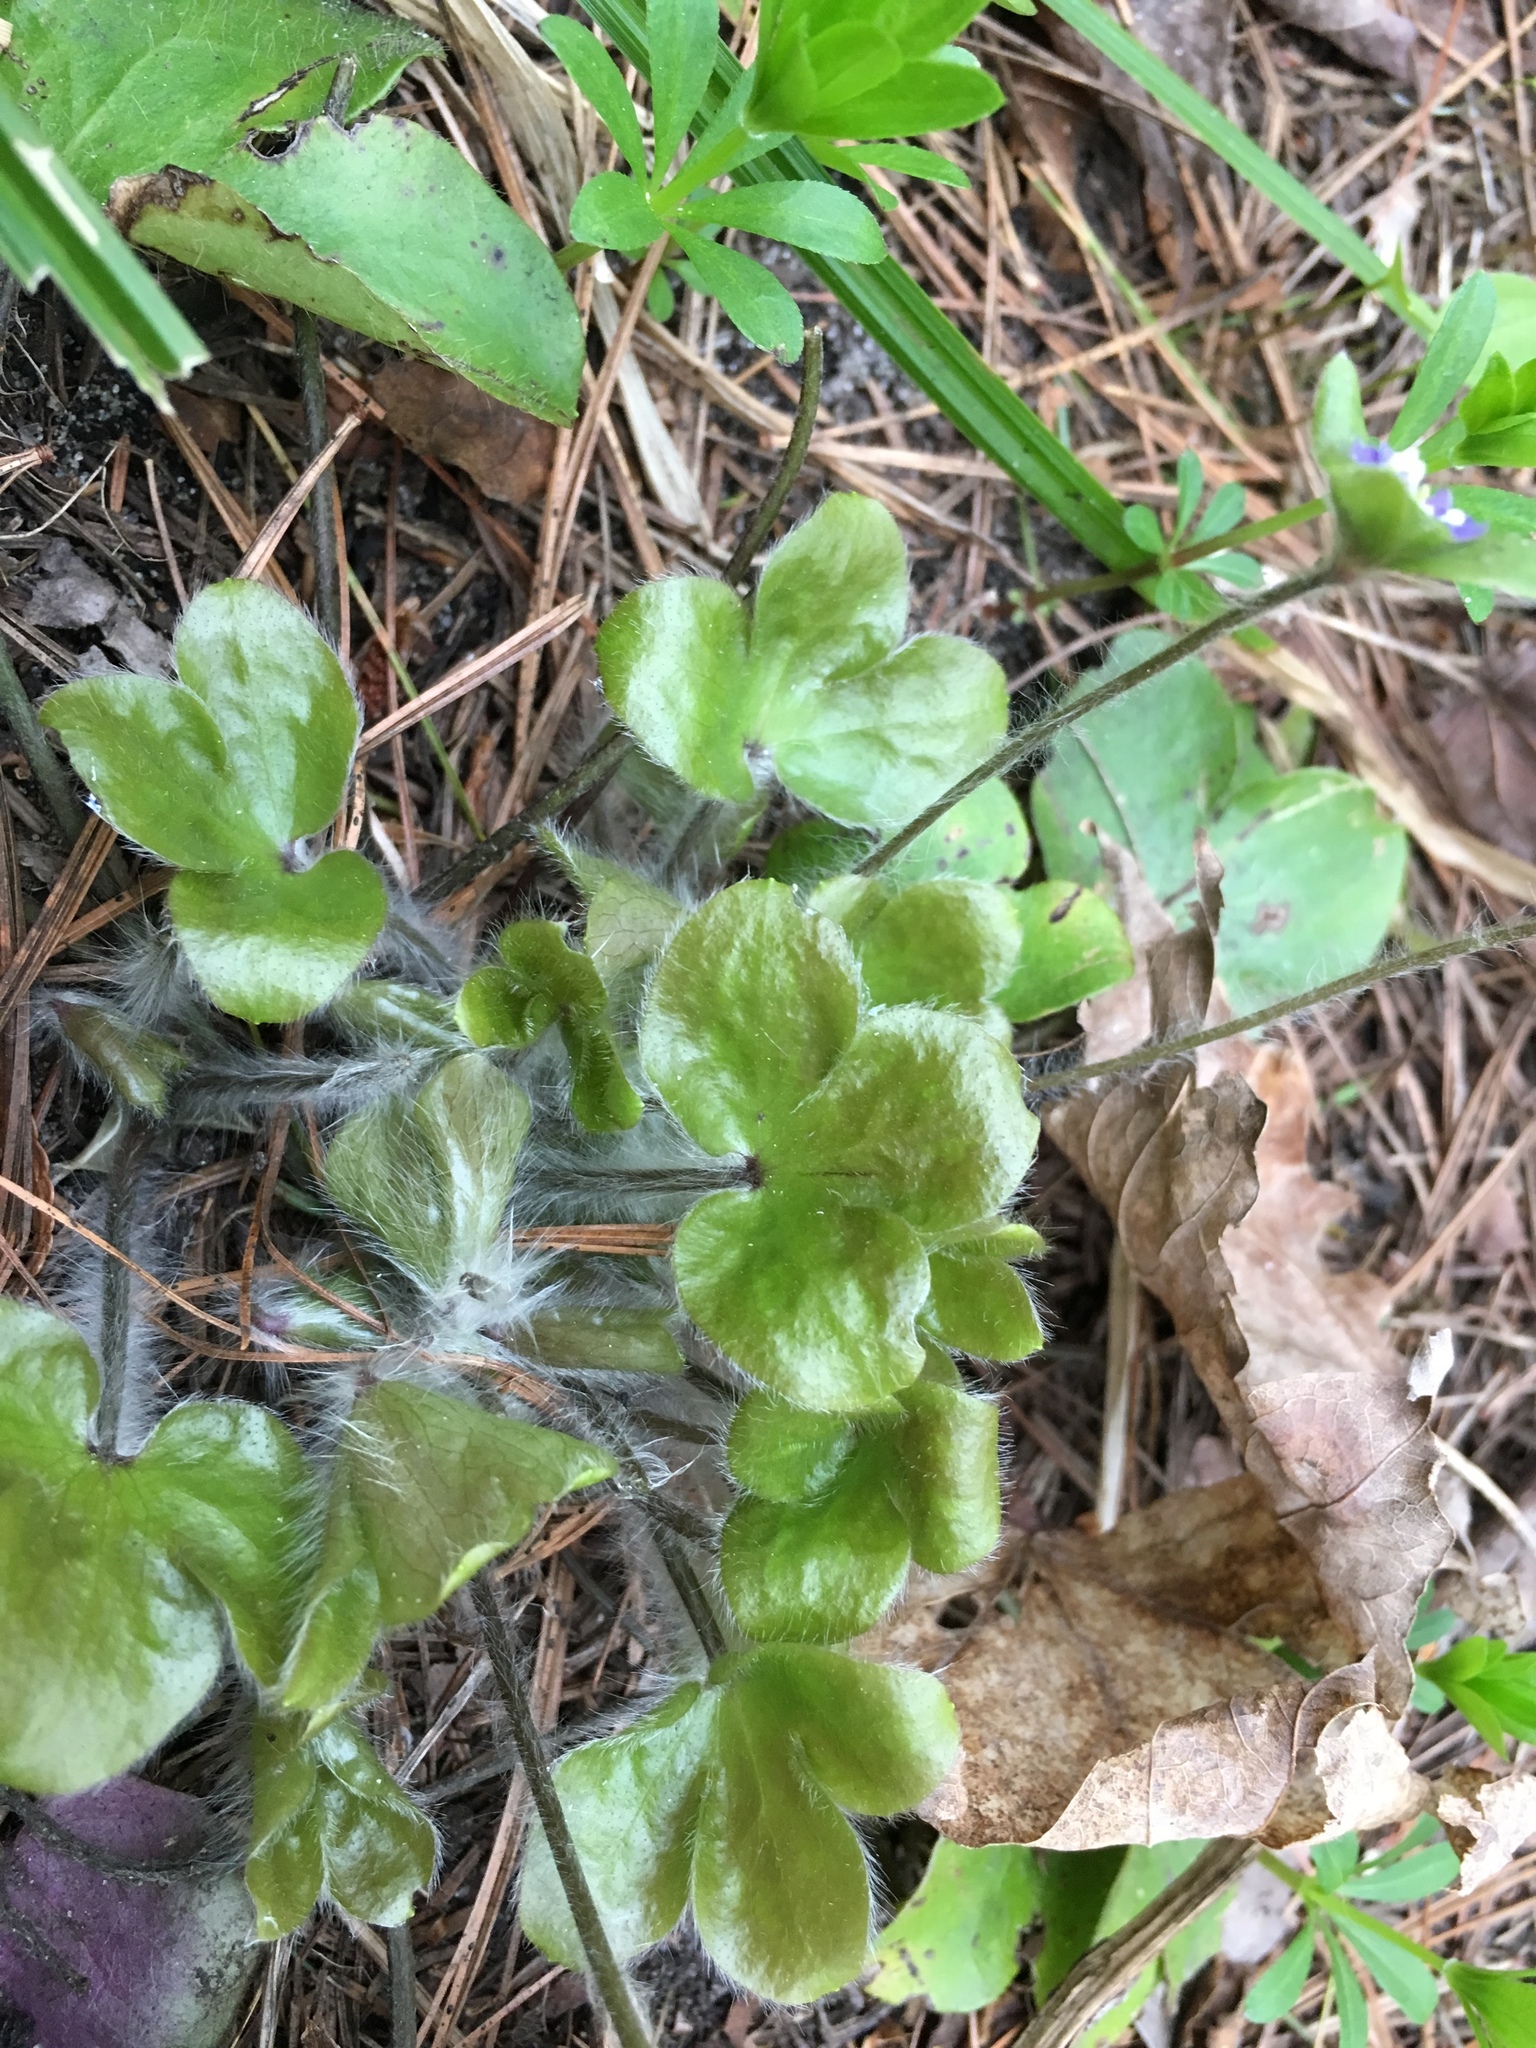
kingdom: Plantae
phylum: Tracheophyta
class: Magnoliopsida
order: Ranunculales
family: Ranunculaceae
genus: Hepatica
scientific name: Hepatica americana
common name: American hepatica
